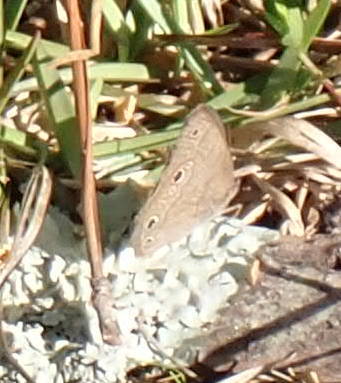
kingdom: Animalia
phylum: Arthropoda
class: Insecta
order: Lepidoptera
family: Nymphalidae
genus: Hermeuptychia
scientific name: Hermeuptychia hermes
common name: Hermes satyr
